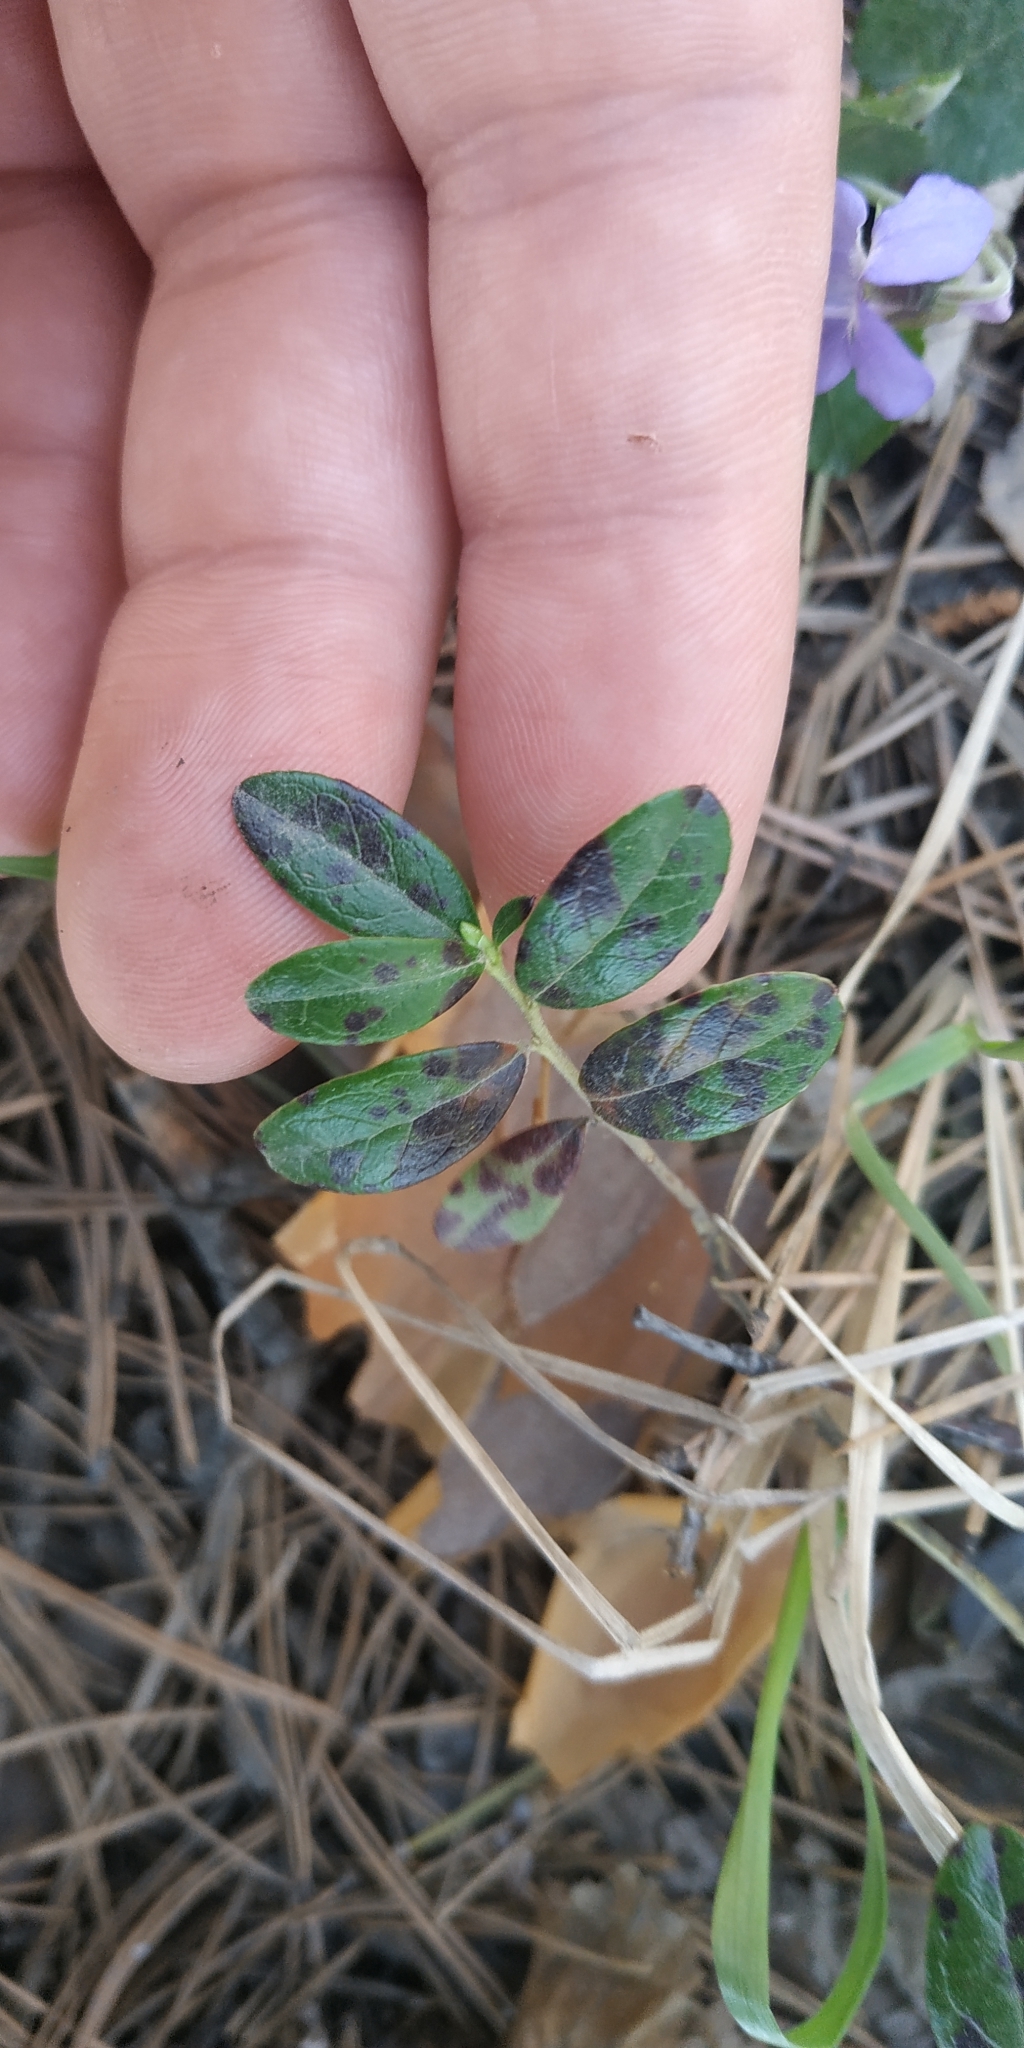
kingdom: Plantae
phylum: Tracheophyta
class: Magnoliopsida
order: Ericales
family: Ericaceae
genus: Vaccinium
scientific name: Vaccinium vitis-idaea
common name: Cowberry
